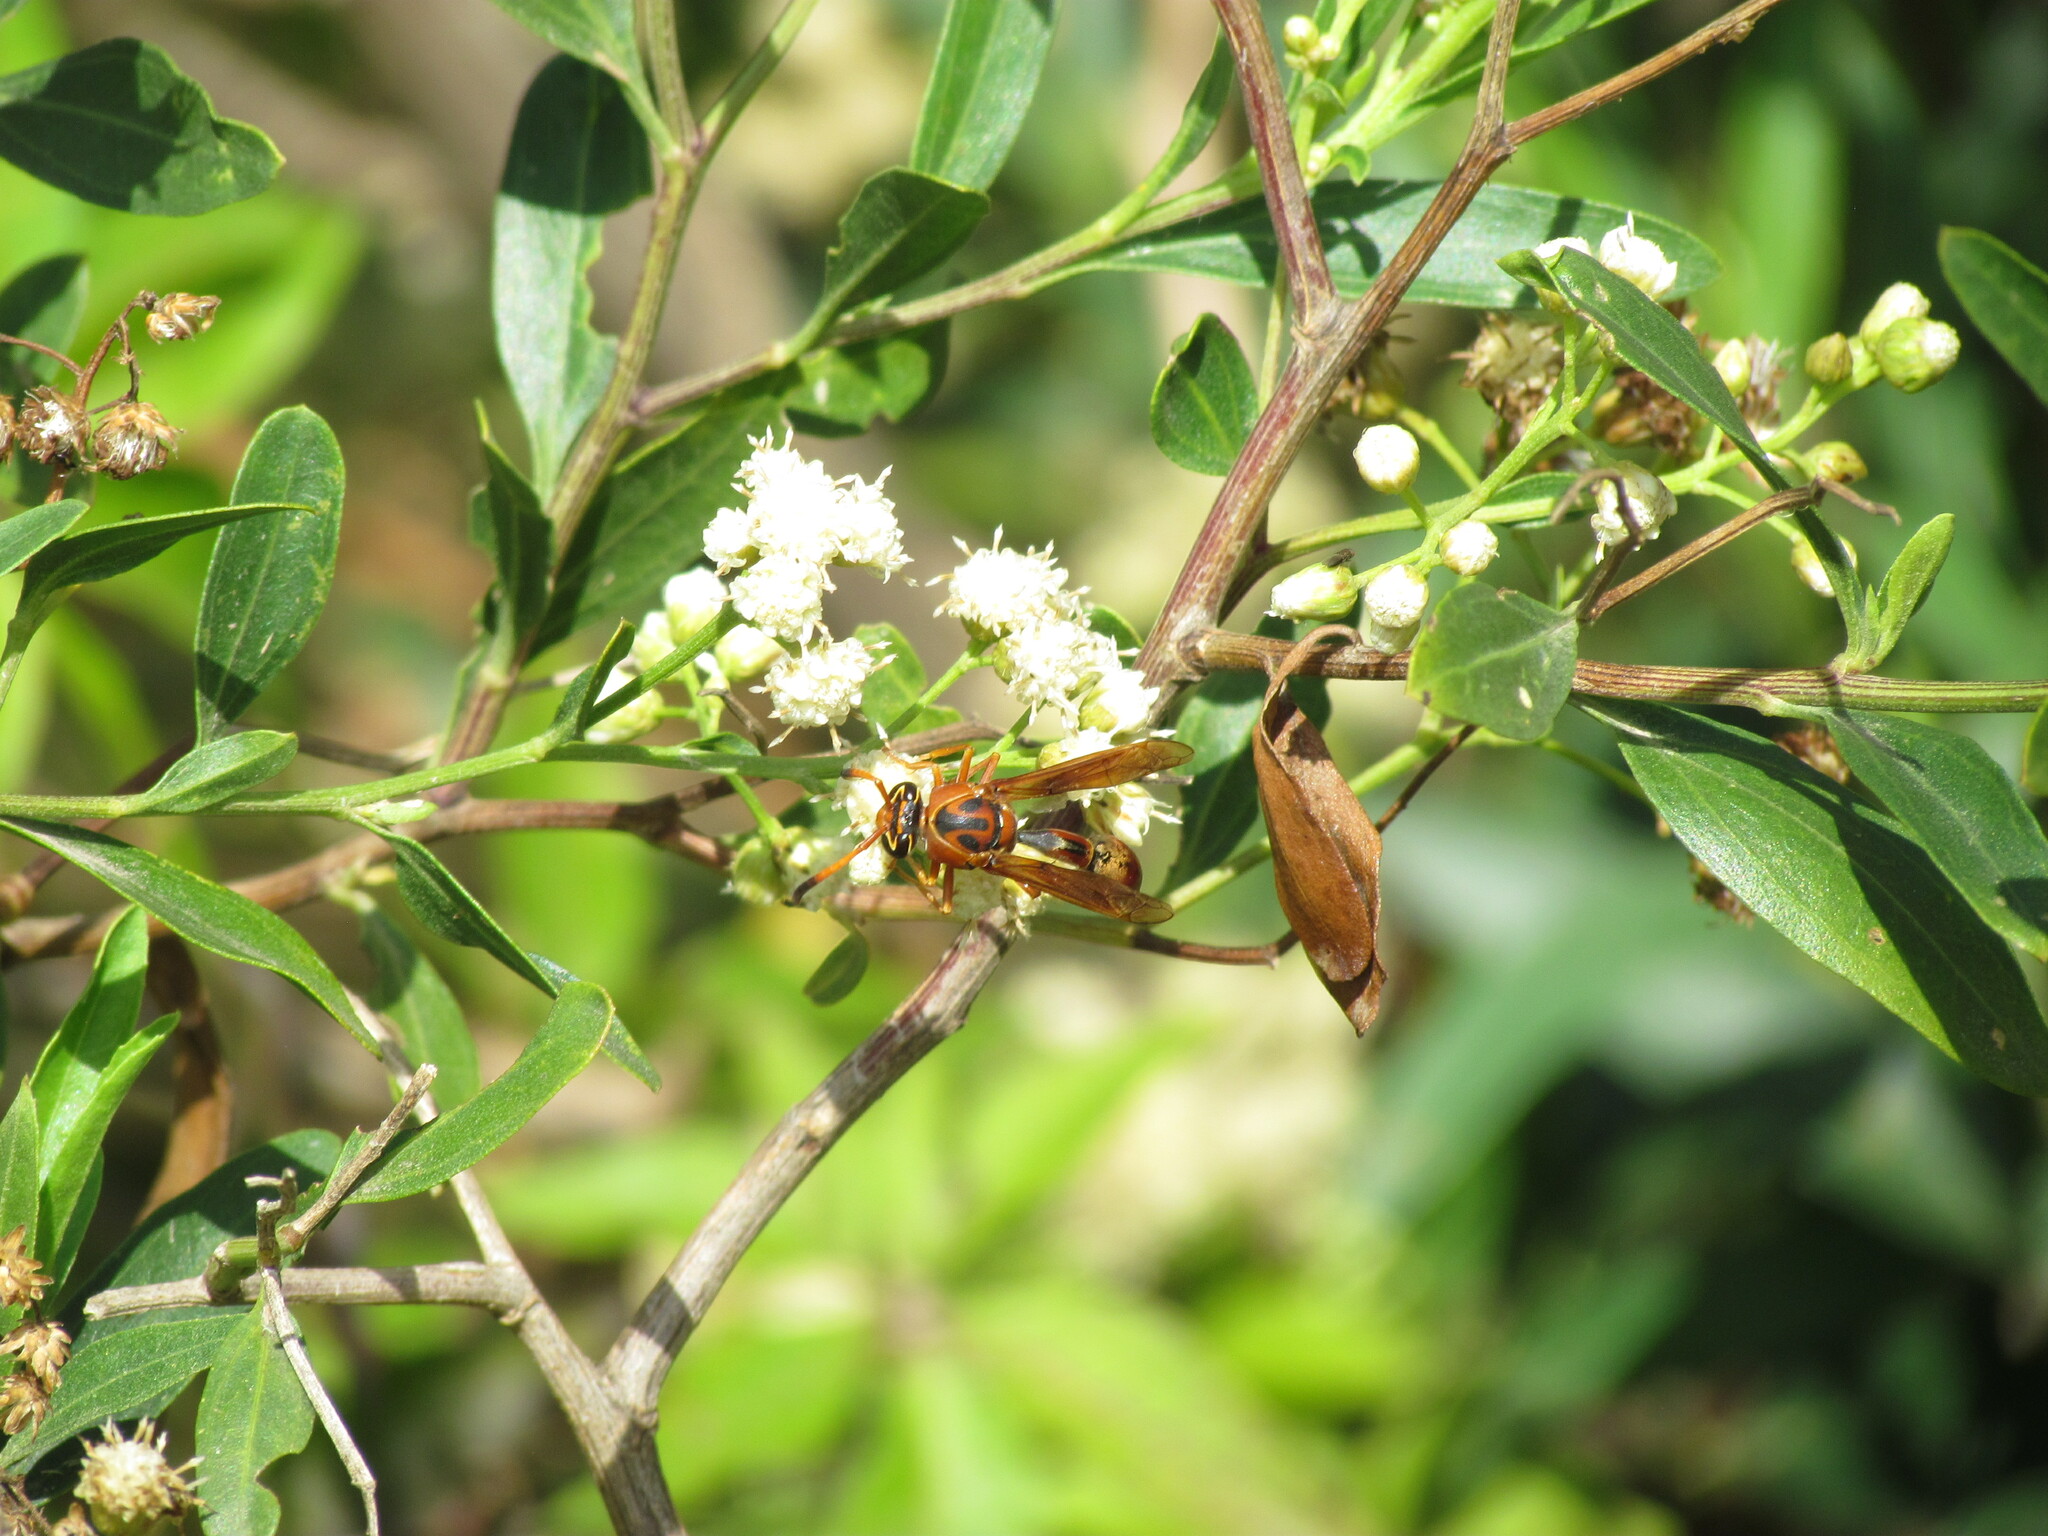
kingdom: Animalia
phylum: Arthropoda
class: Insecta
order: Hymenoptera
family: Eumenidae
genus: Zeta
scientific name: Zeta argillaceum
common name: Potter wasp
